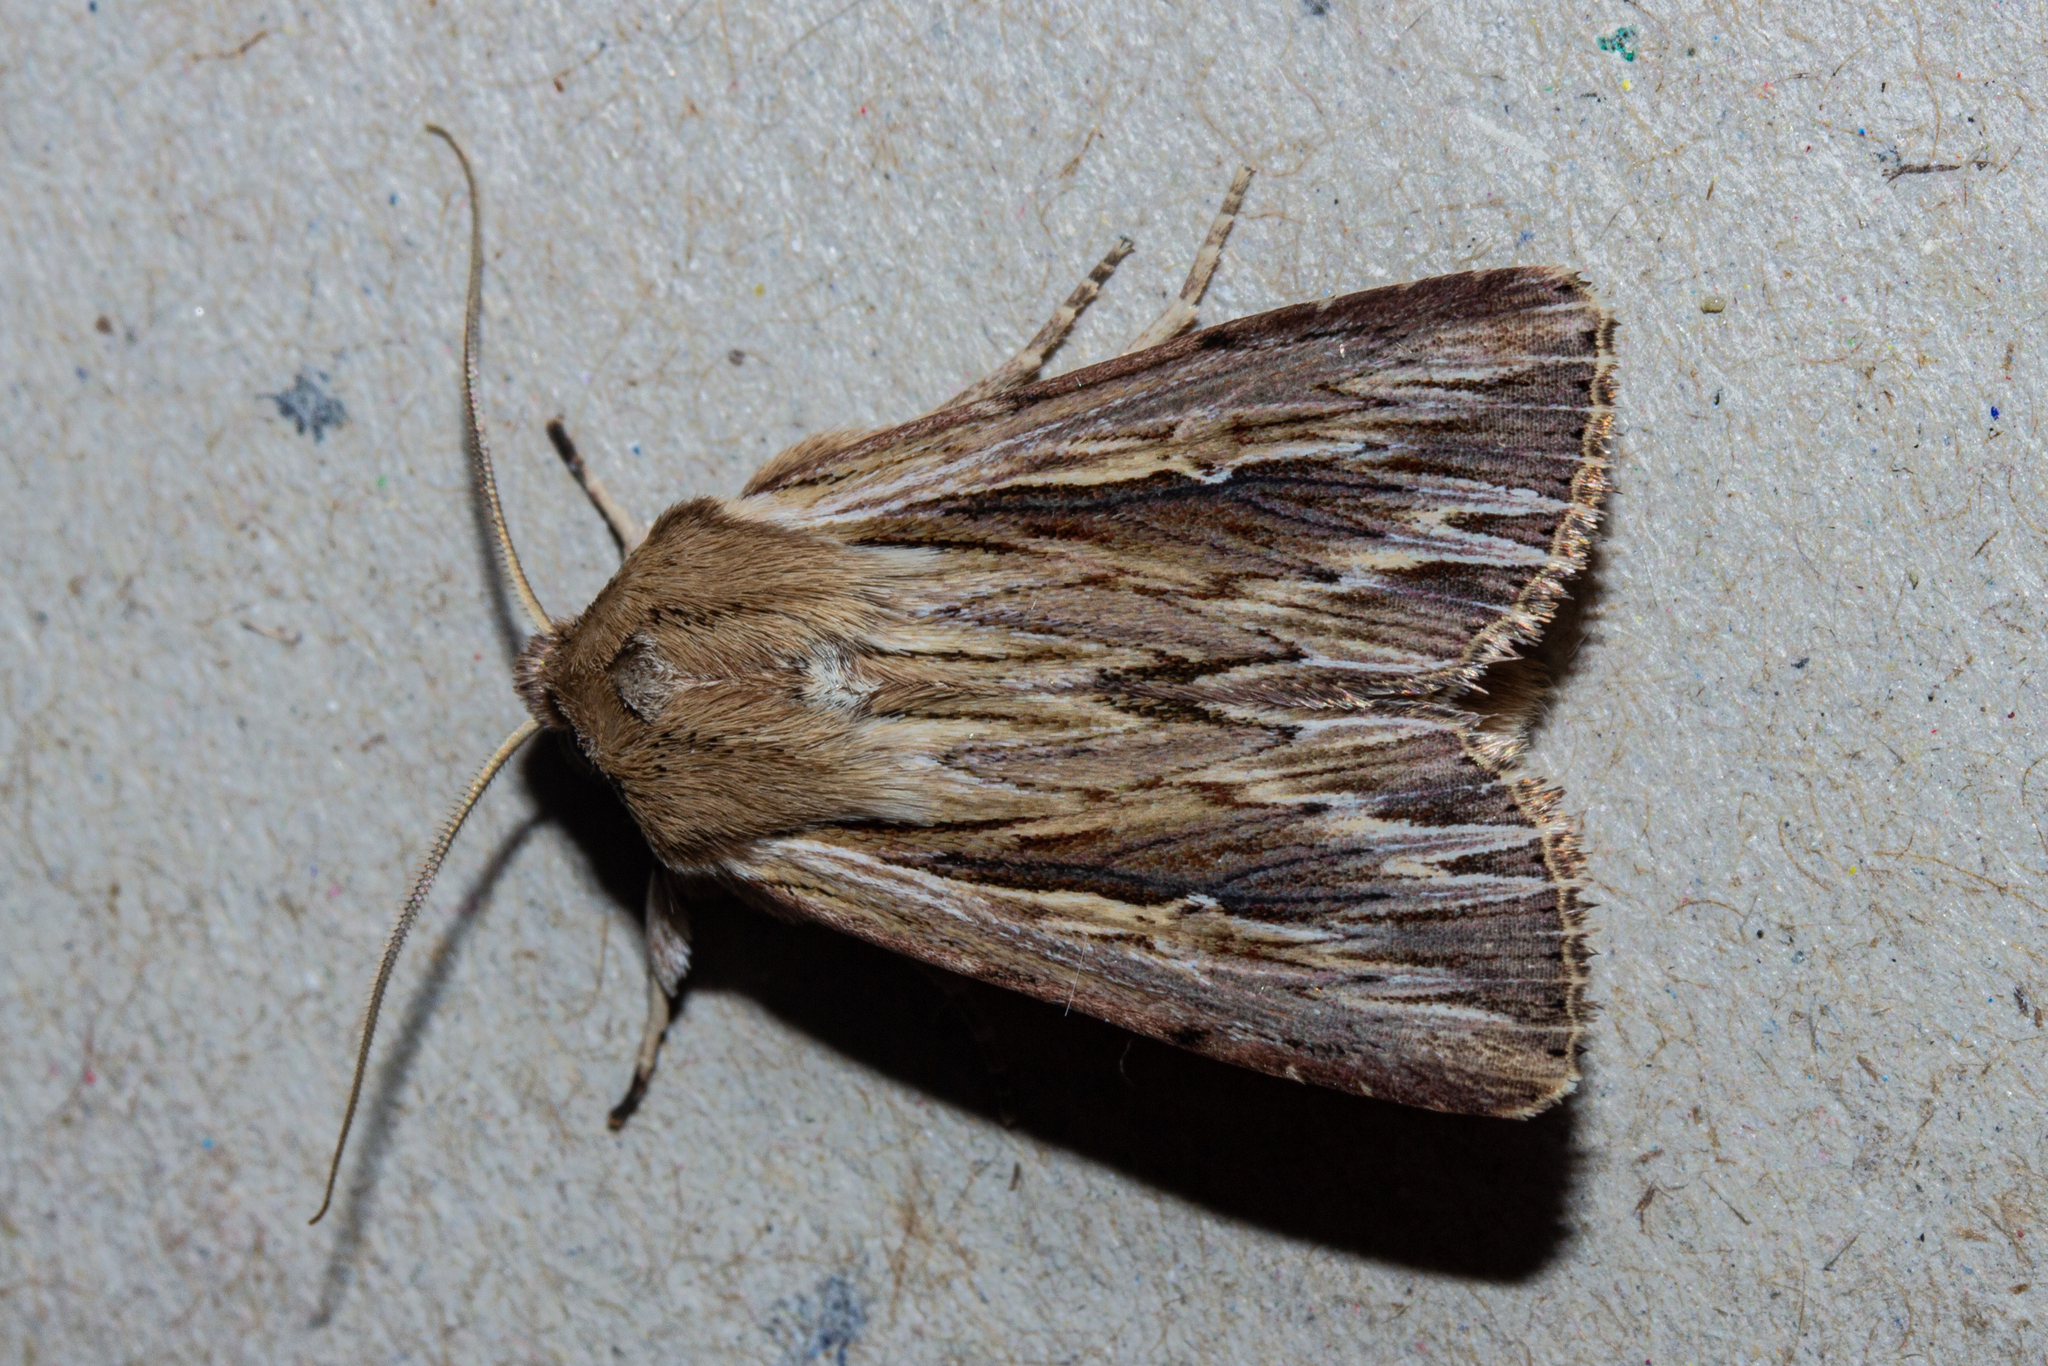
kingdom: Animalia
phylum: Arthropoda
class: Insecta
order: Lepidoptera
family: Noctuidae
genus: Persectania
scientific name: Persectania aversa
